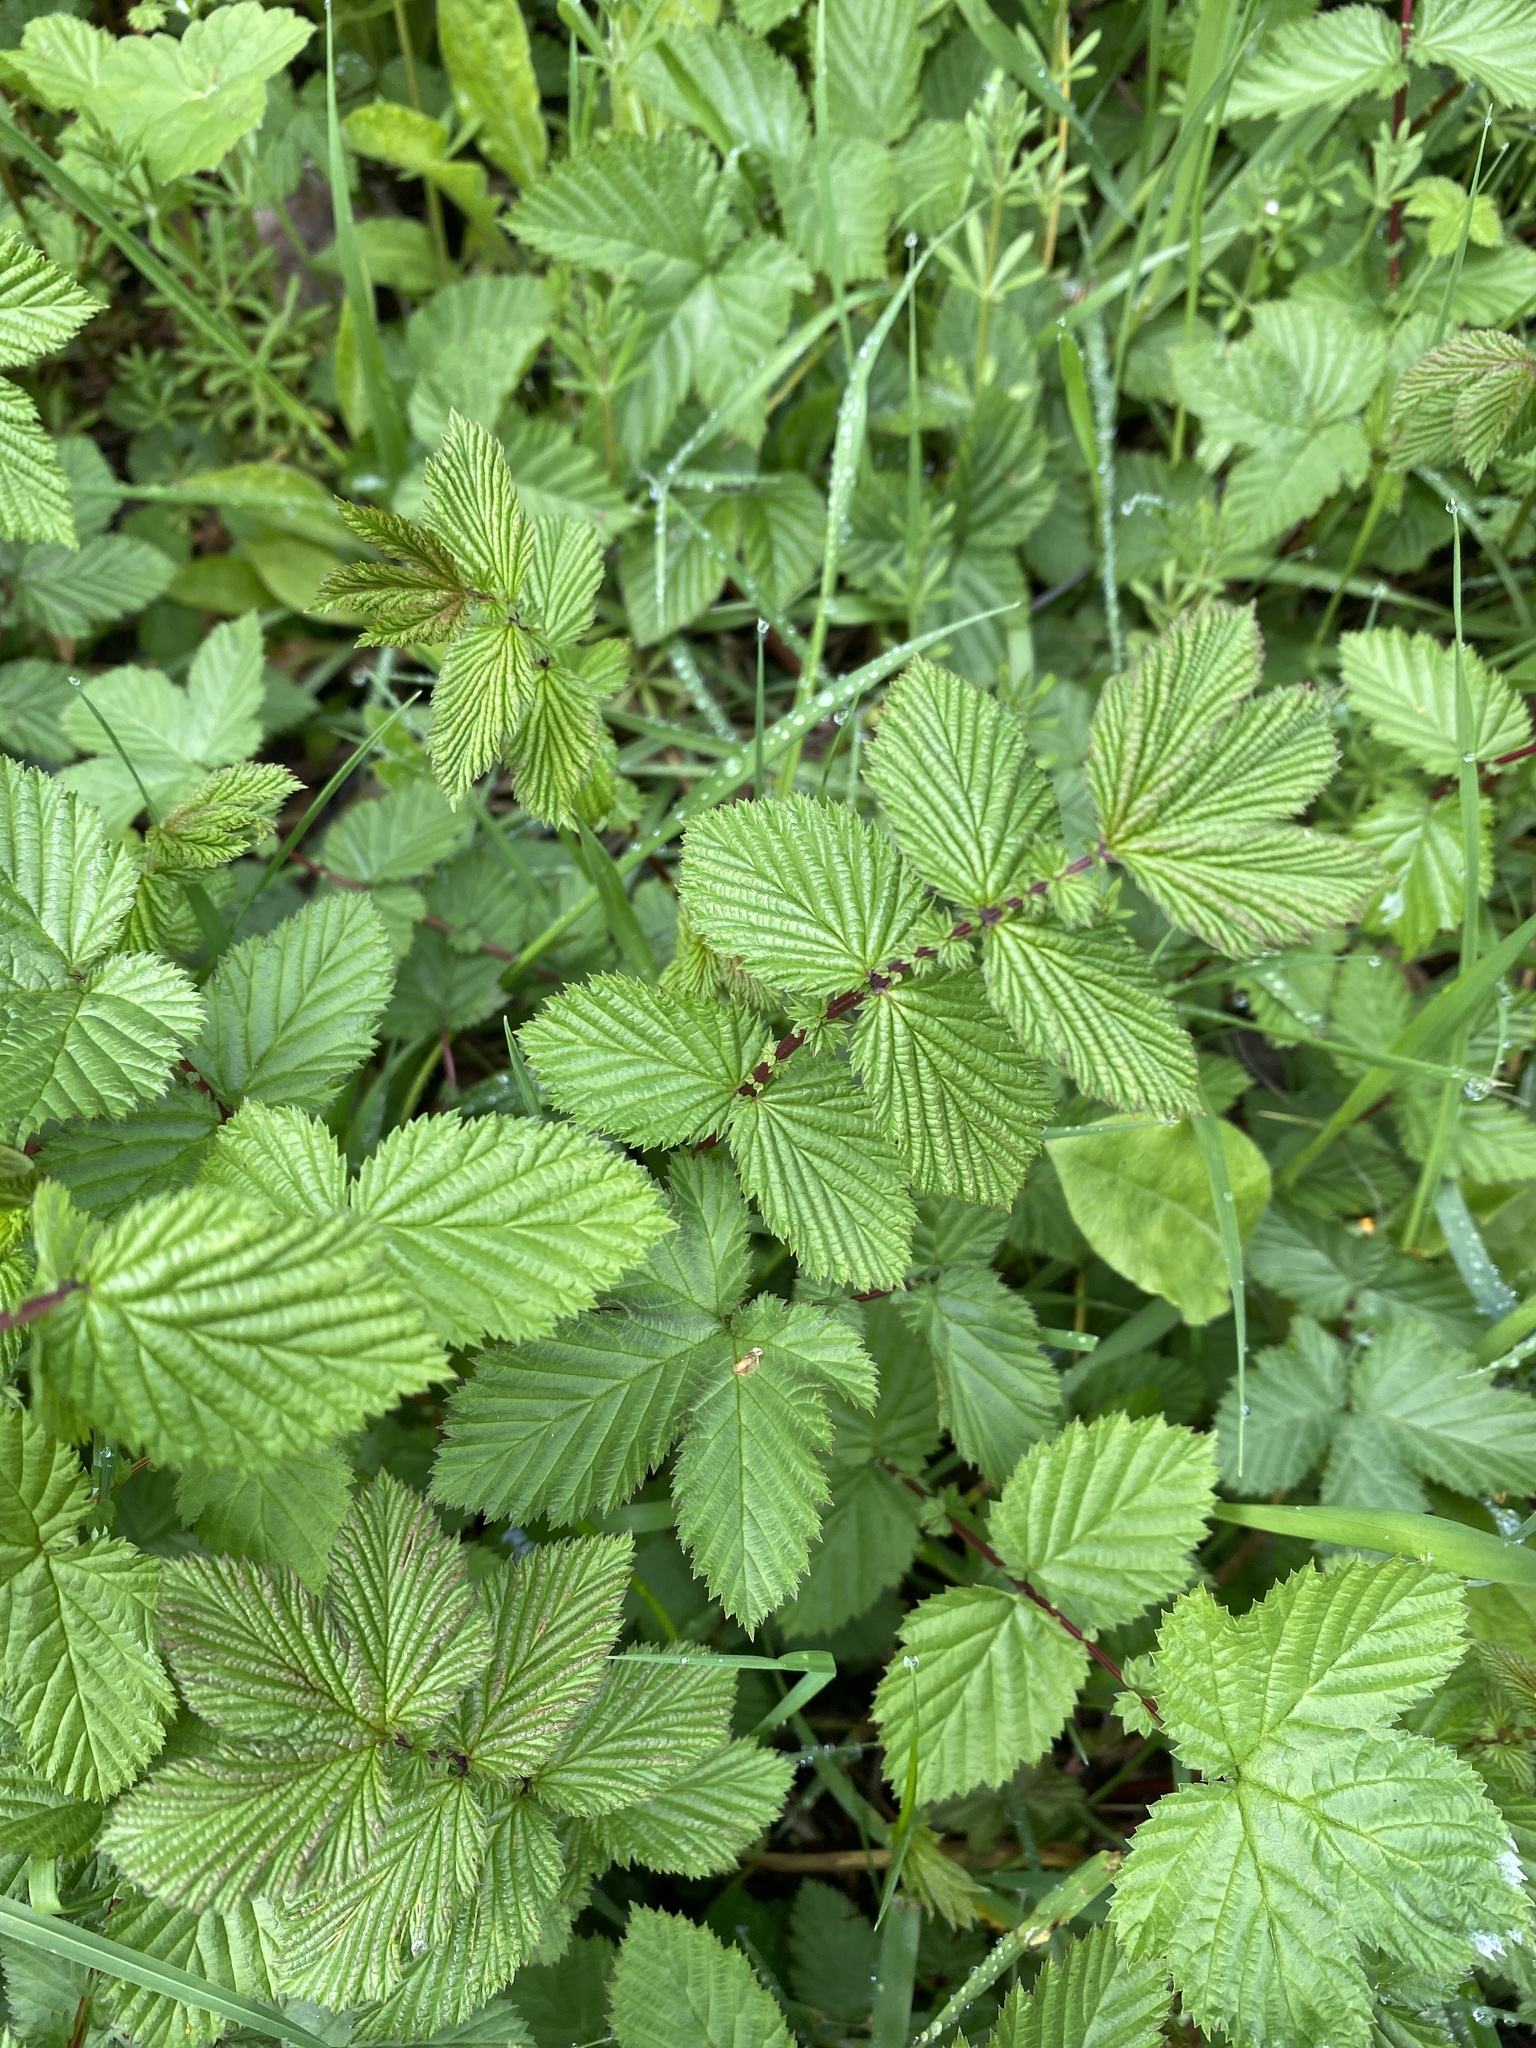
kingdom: Plantae
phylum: Tracheophyta
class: Magnoliopsida
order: Rosales
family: Rosaceae
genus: Filipendula
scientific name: Filipendula ulmaria
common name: Meadowsweet
